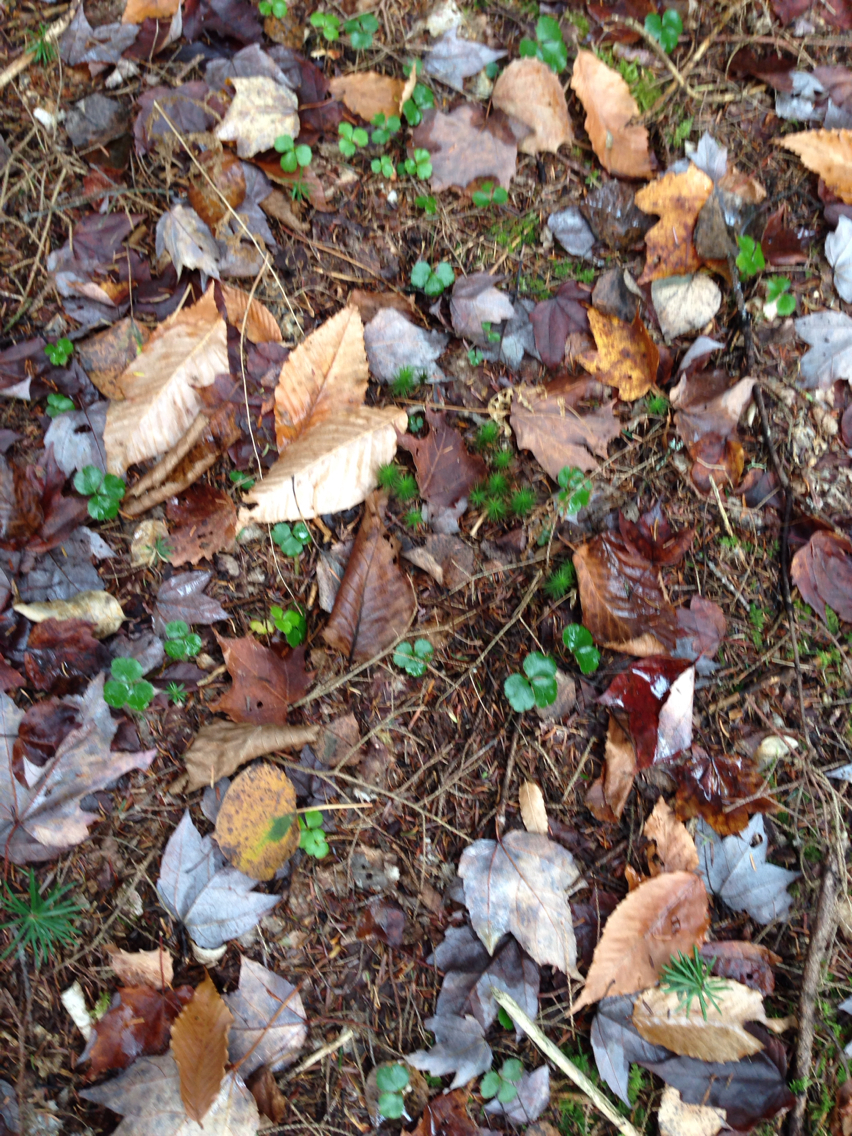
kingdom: Plantae
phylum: Tracheophyta
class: Magnoliopsida
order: Ranunculales
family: Ranunculaceae
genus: Coptis
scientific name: Coptis trifolia
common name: Canker-root
